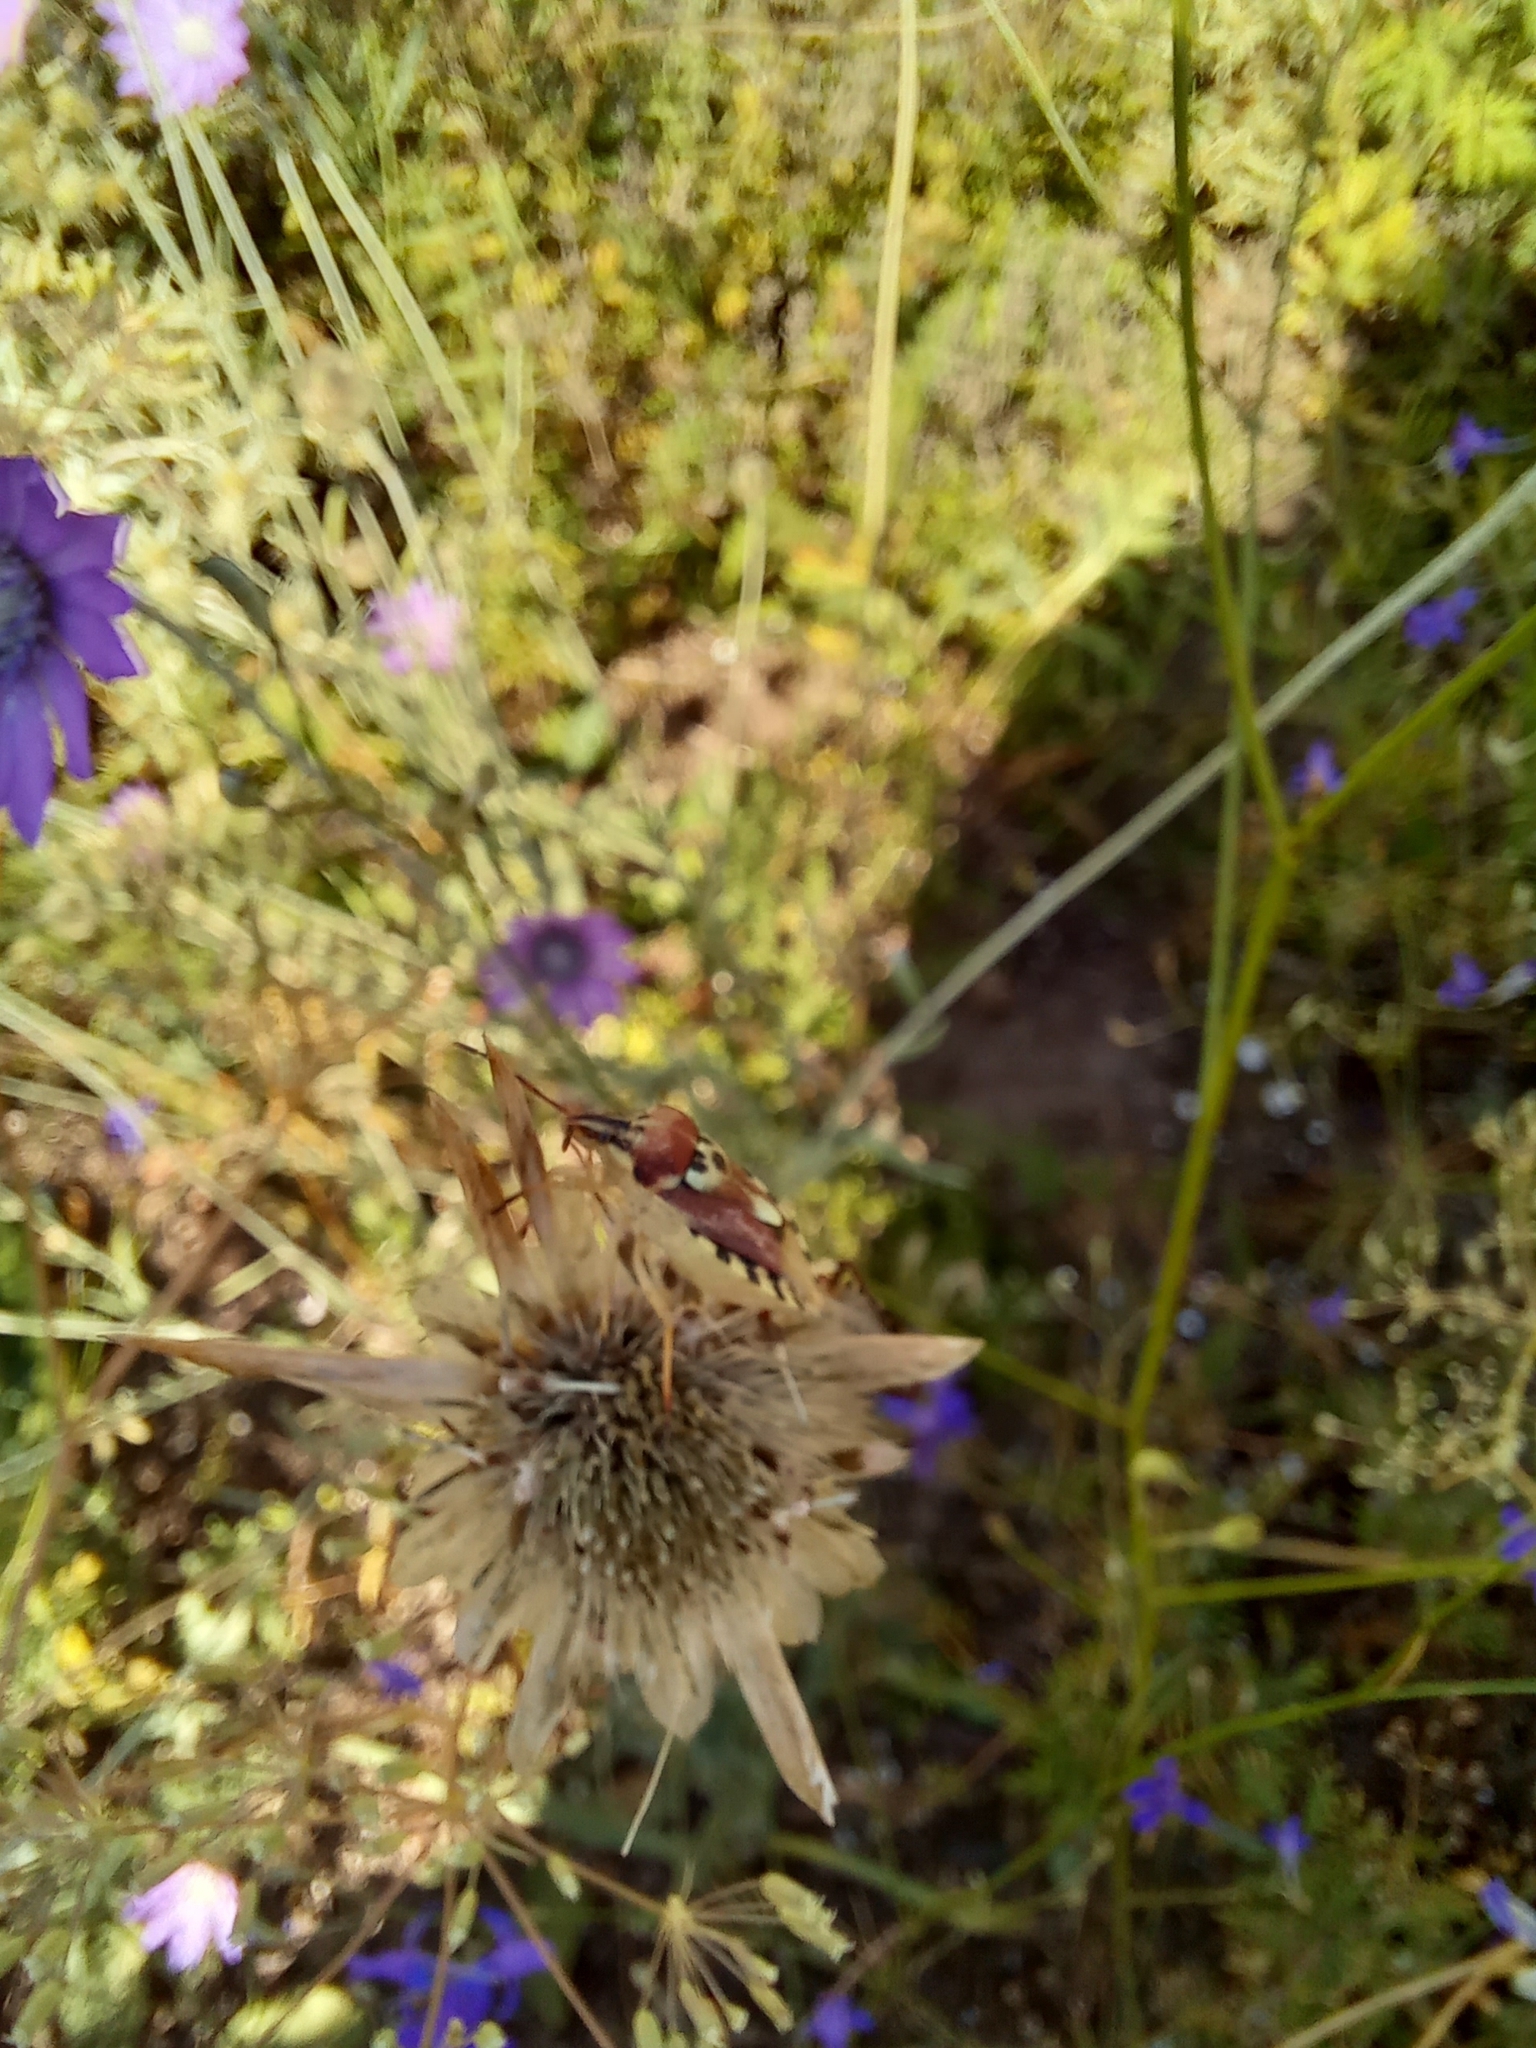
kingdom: Plantae
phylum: Tracheophyta
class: Magnoliopsida
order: Asterales
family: Asteraceae
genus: Xeranthemum
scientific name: Xeranthemum annuum
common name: Immortelle
